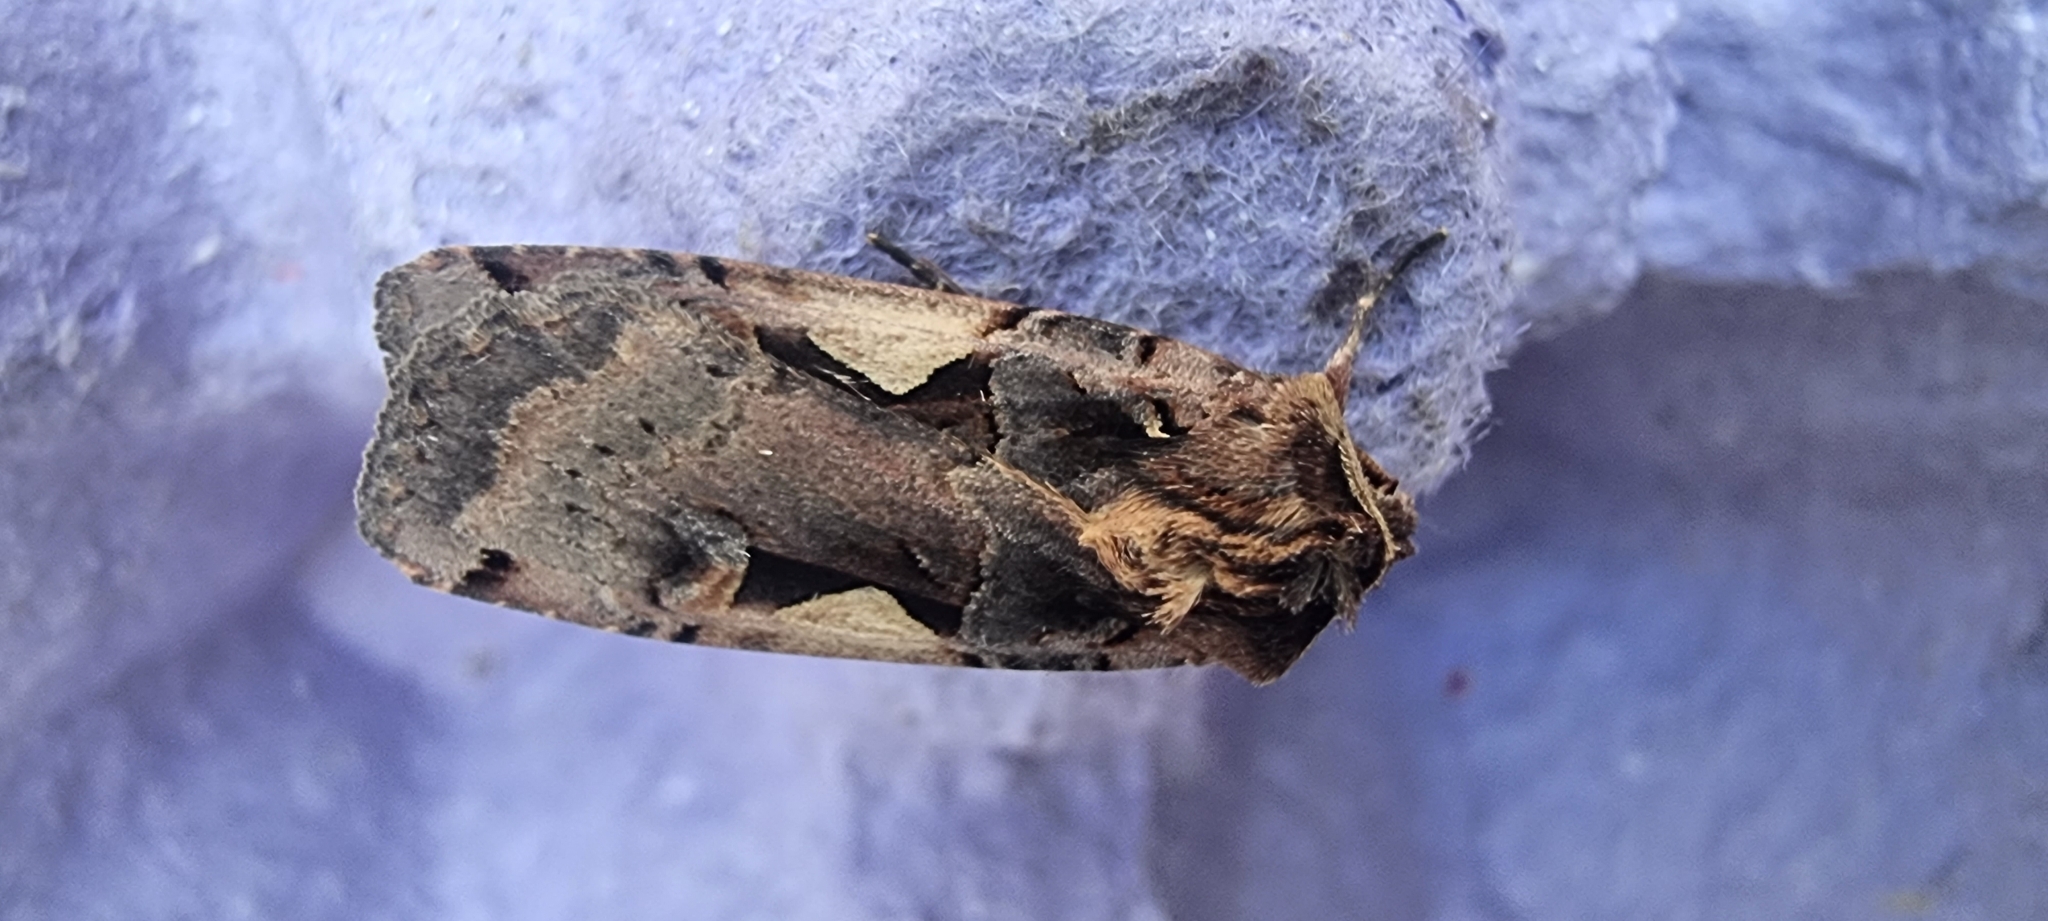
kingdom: Animalia
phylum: Arthropoda
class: Insecta
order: Lepidoptera
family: Noctuidae
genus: Xestia
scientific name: Xestia c-nigrum
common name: Setaceous hebrew character
